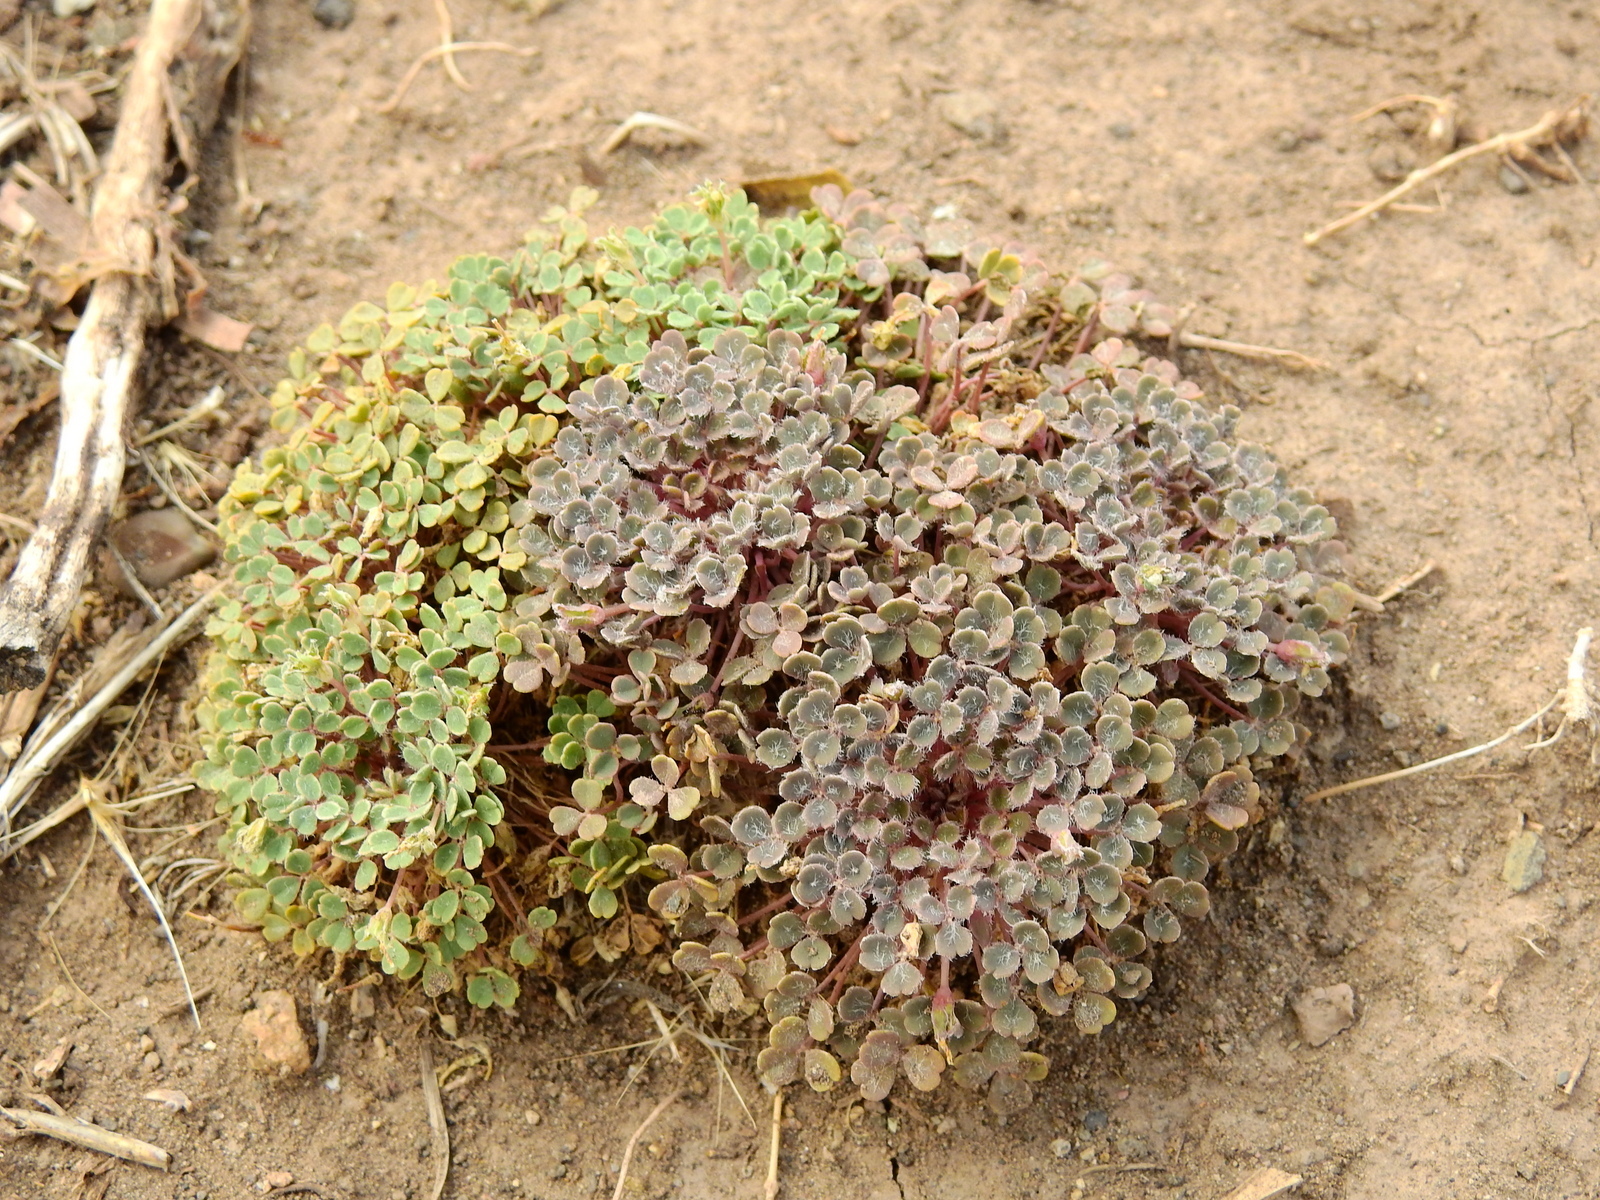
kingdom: Plantae
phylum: Tracheophyta
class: Magnoliopsida
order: Oxalidales
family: Oxalidaceae
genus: Oxalis
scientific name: Oxalis chachahuensis
